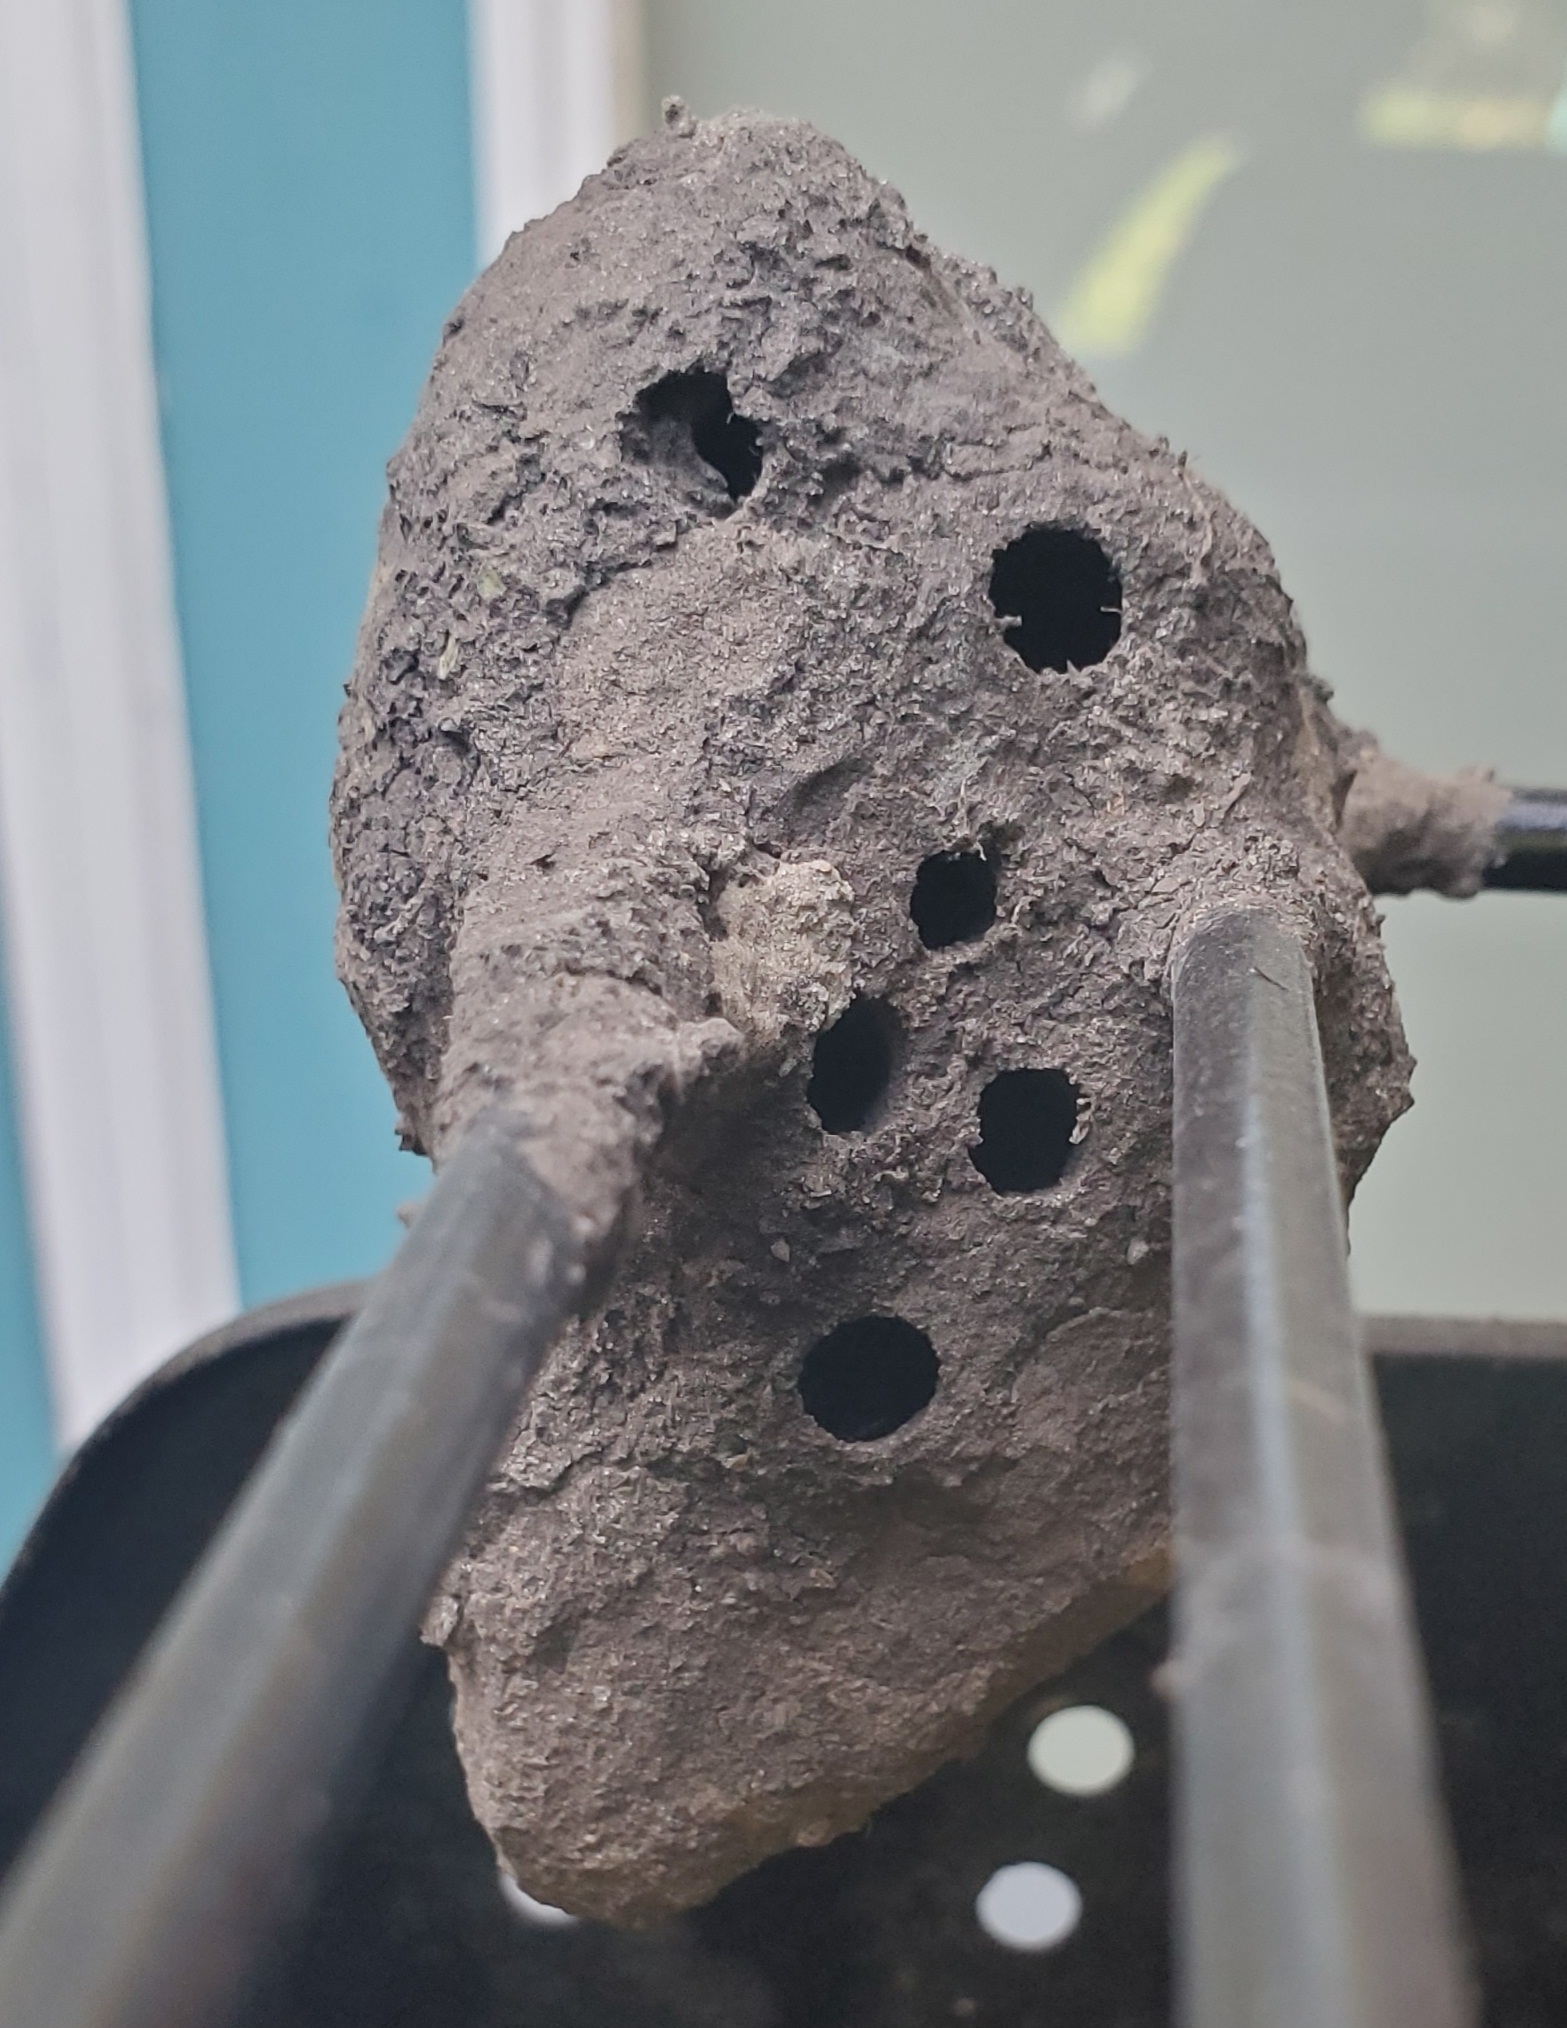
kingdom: Animalia
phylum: Arthropoda
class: Insecta
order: Hymenoptera
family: Sphecidae
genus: Sceliphron
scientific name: Sceliphron caementarium
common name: Mud dauber
